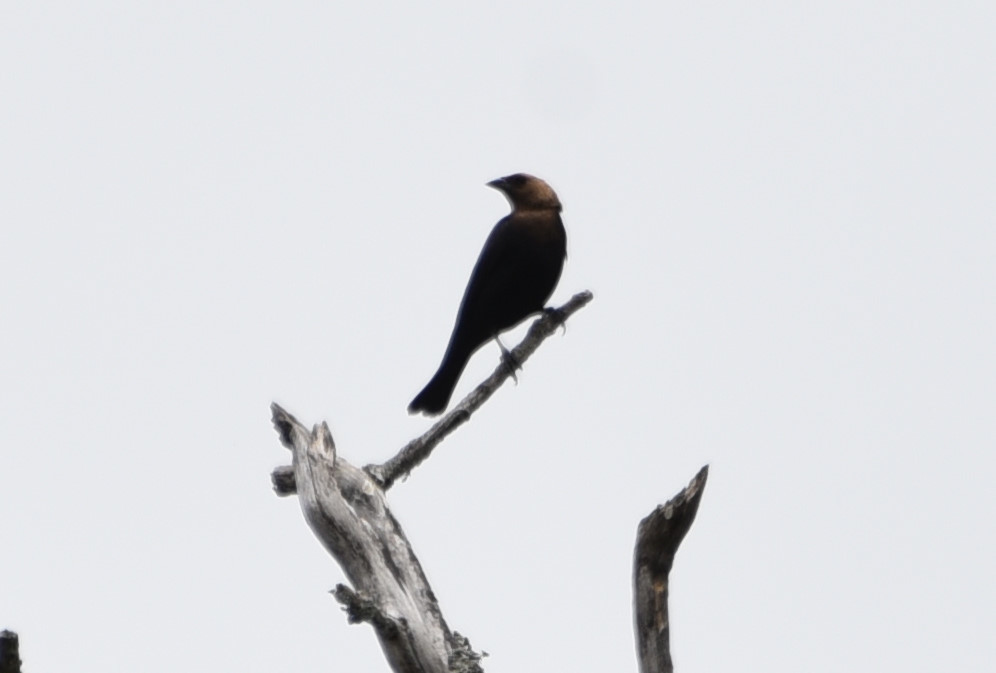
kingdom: Animalia
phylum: Chordata
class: Aves
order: Passeriformes
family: Icteridae
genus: Molothrus
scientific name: Molothrus ater
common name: Brown-headed cowbird
